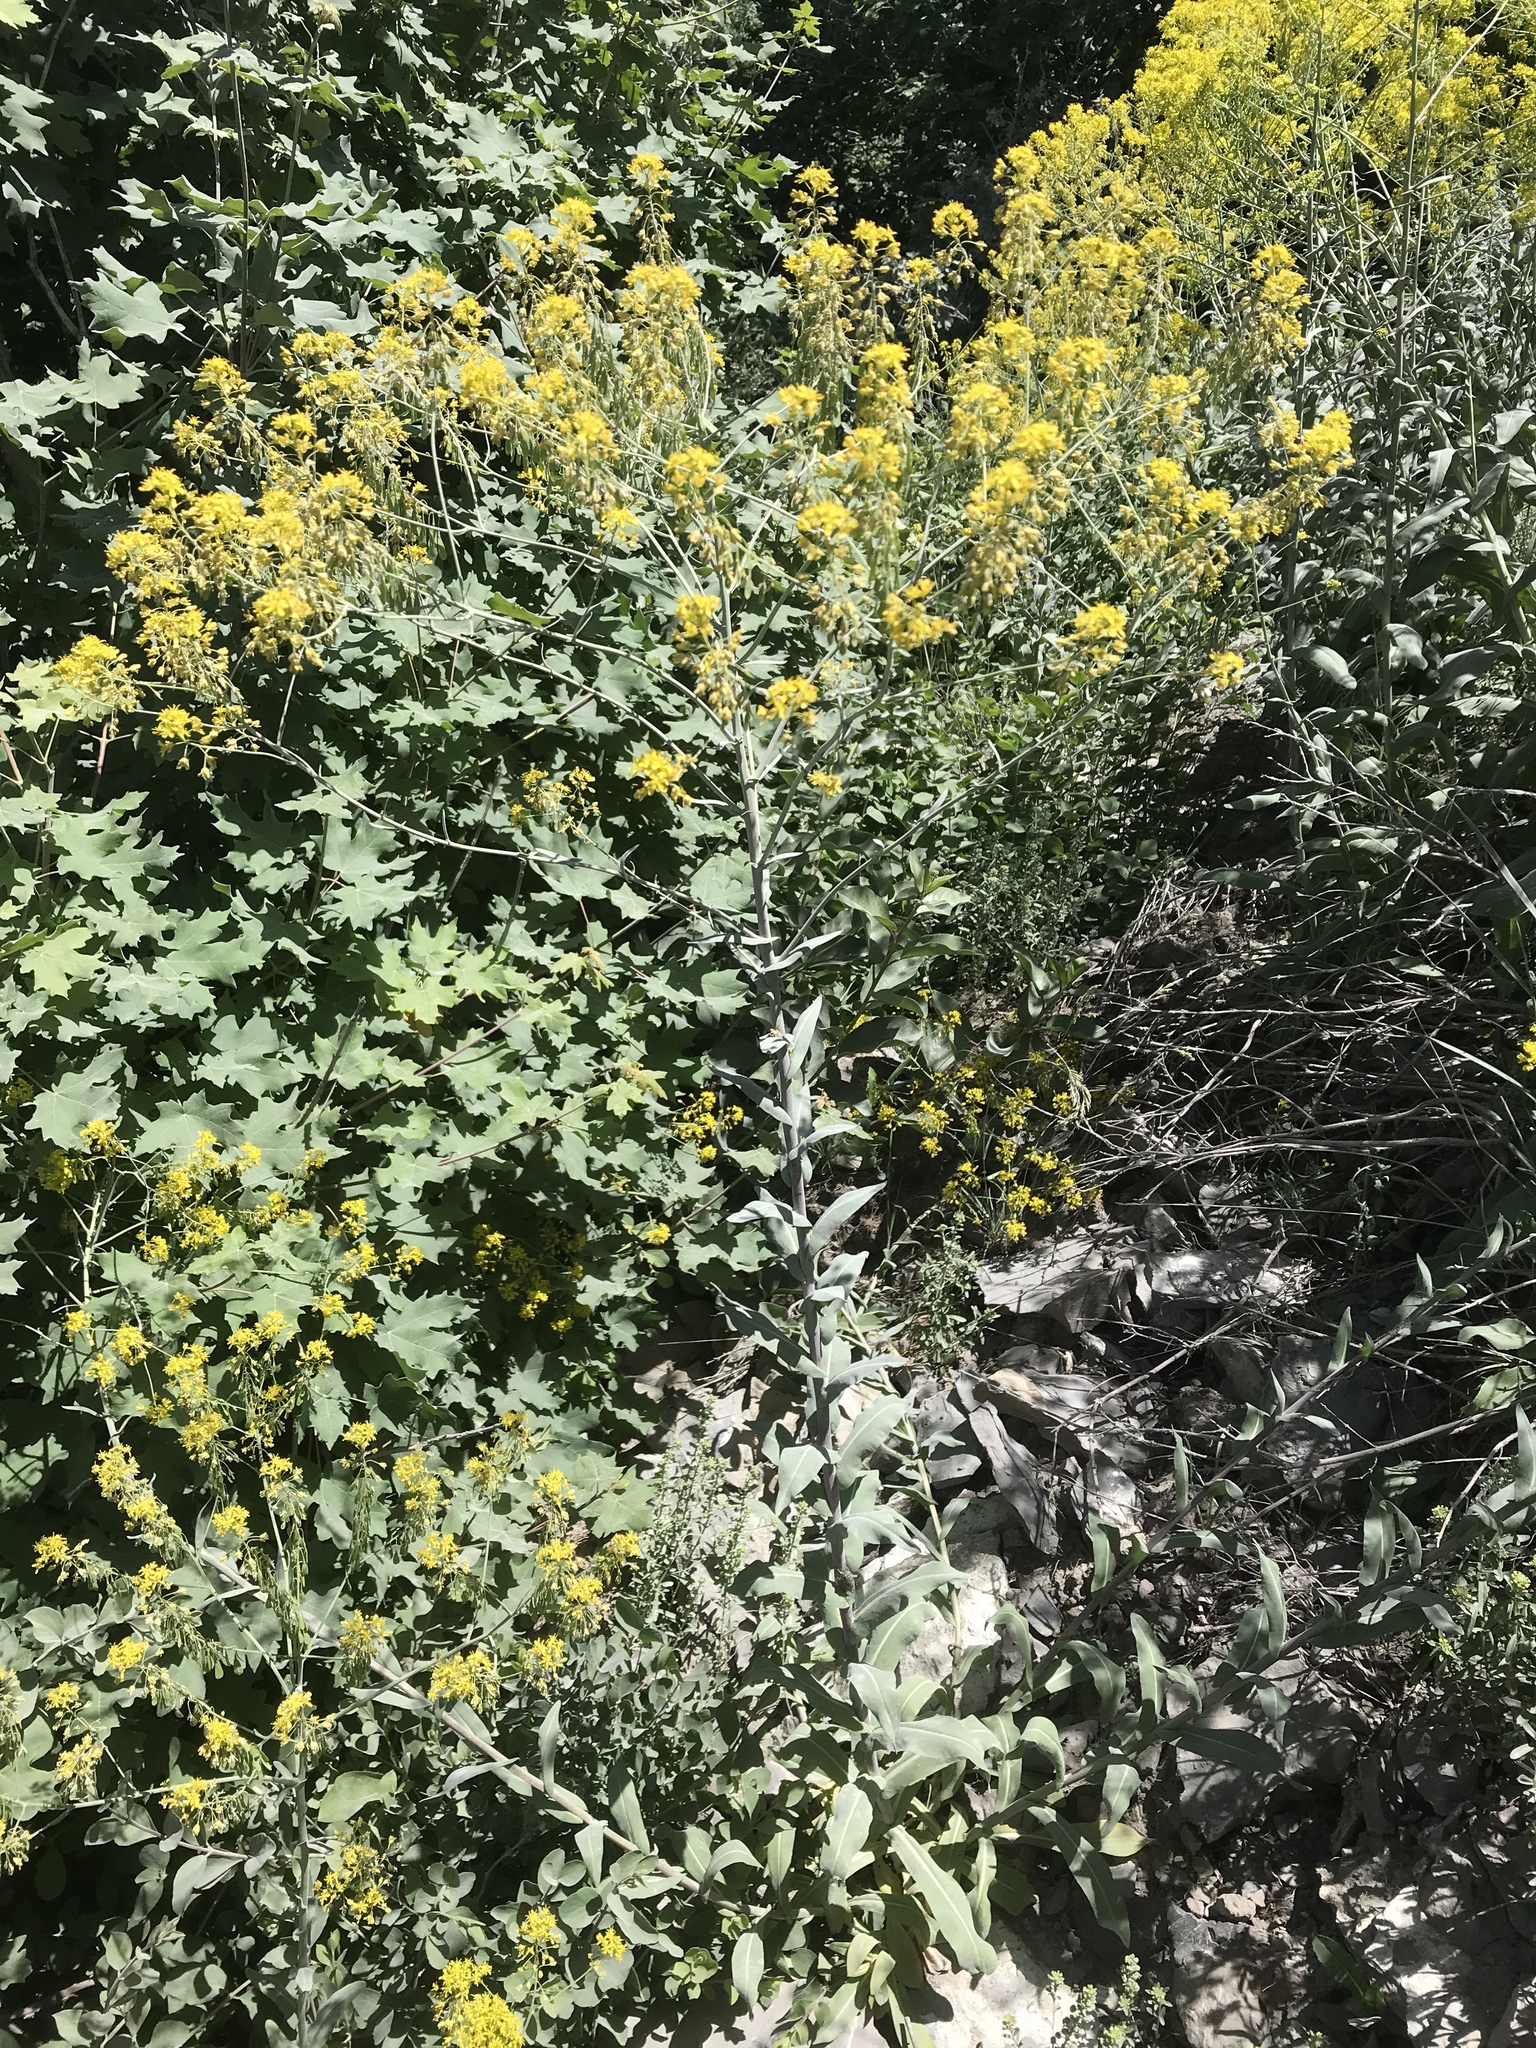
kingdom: Plantae
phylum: Tracheophyta
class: Magnoliopsida
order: Brassicales
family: Brassicaceae
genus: Isatis
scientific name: Isatis tinctoria
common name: Woad
